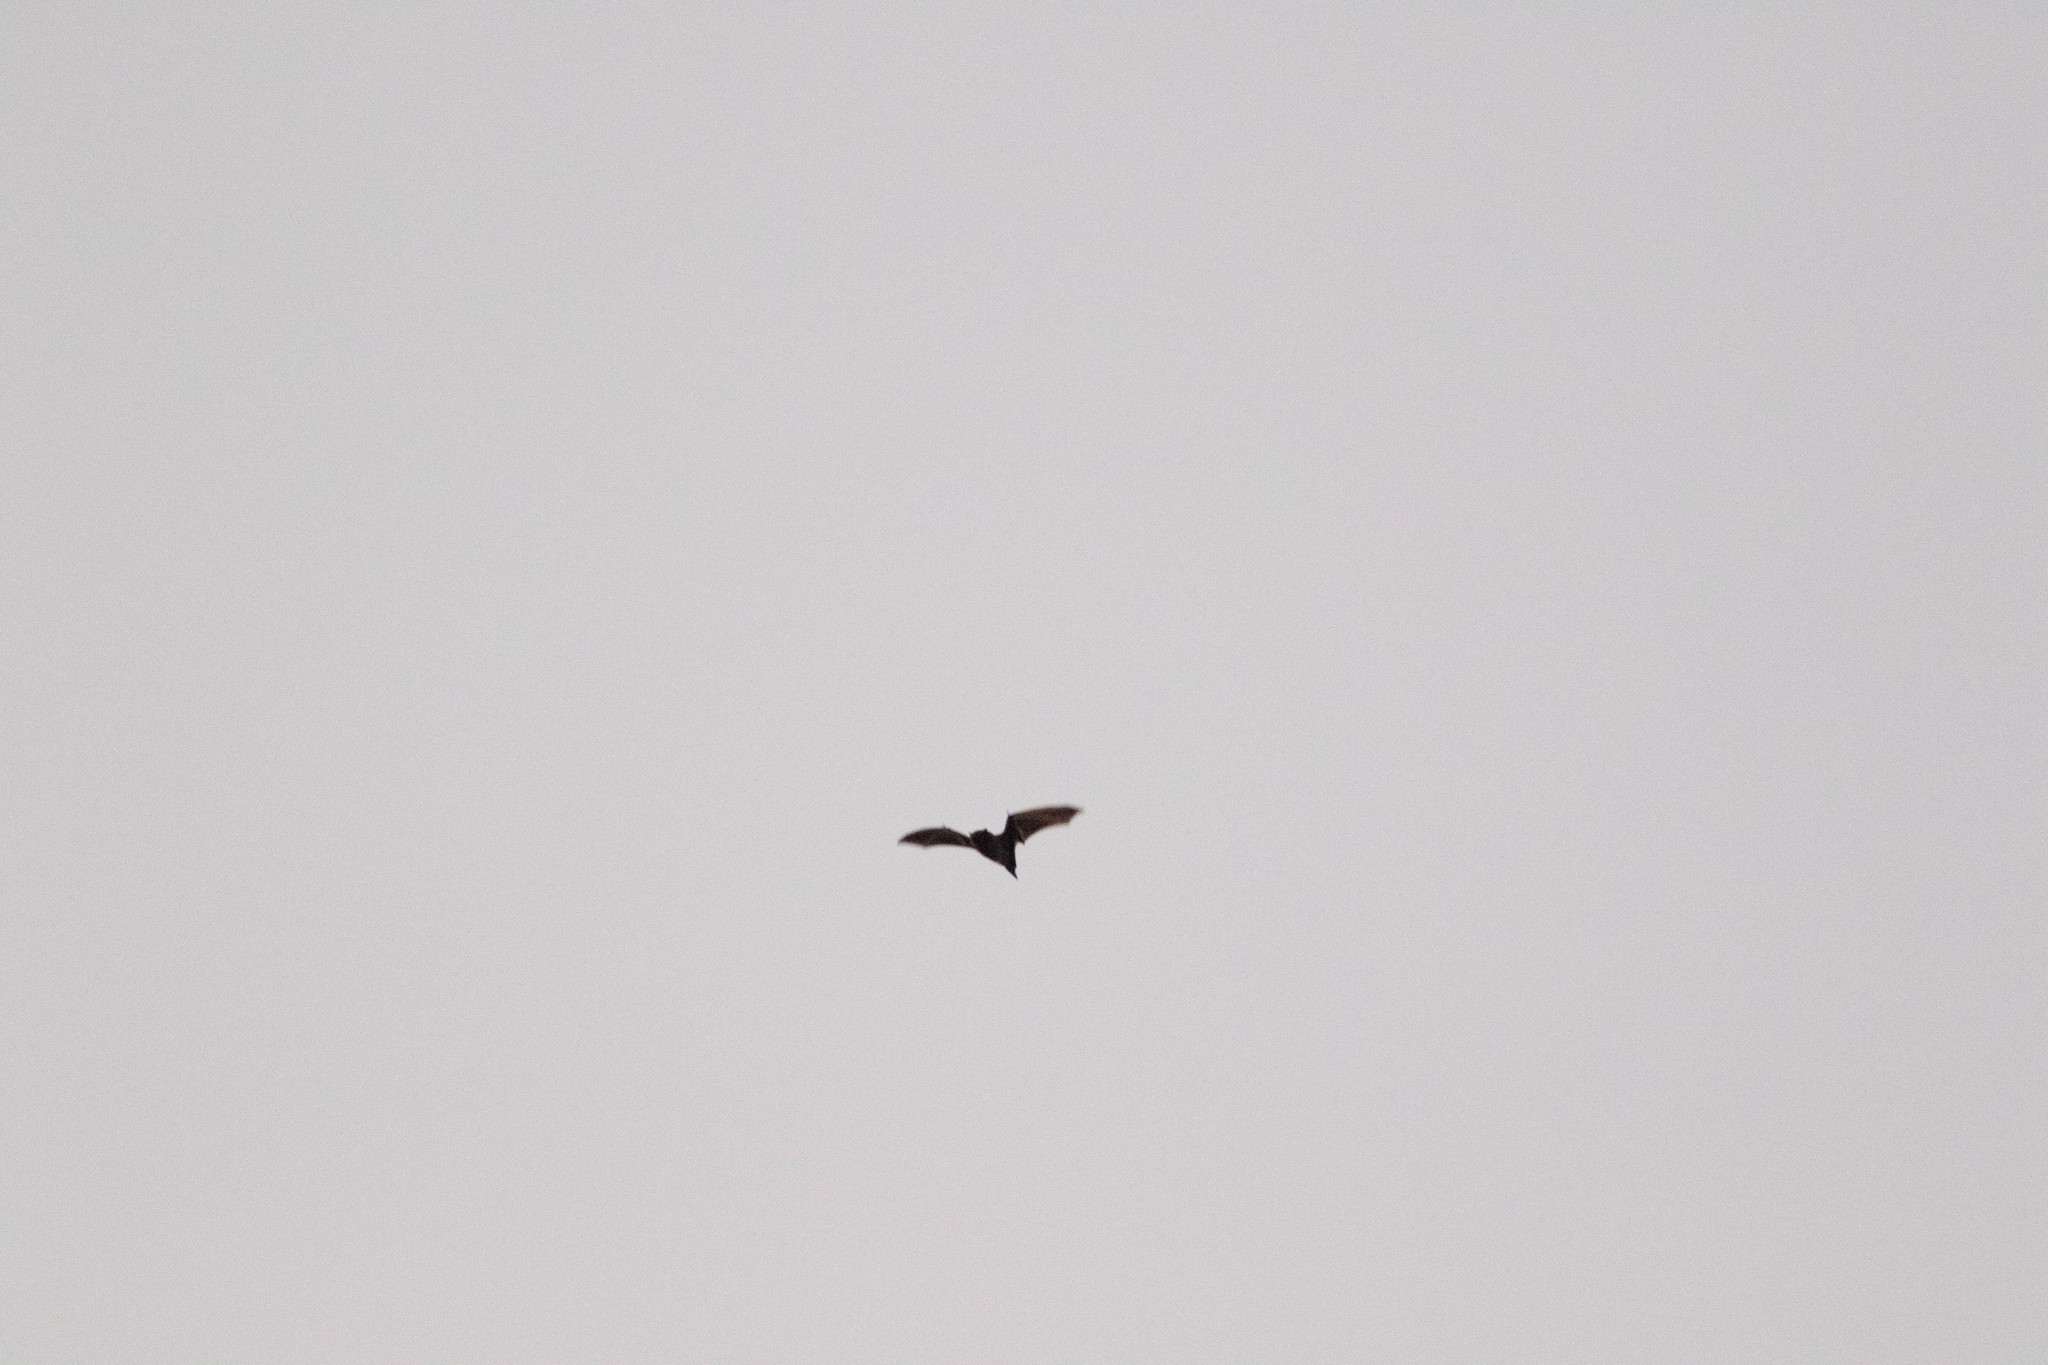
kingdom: Animalia
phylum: Chordata
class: Mammalia
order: Chiroptera
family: Vespertilionidae
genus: Lasiurus
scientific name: Lasiurus
